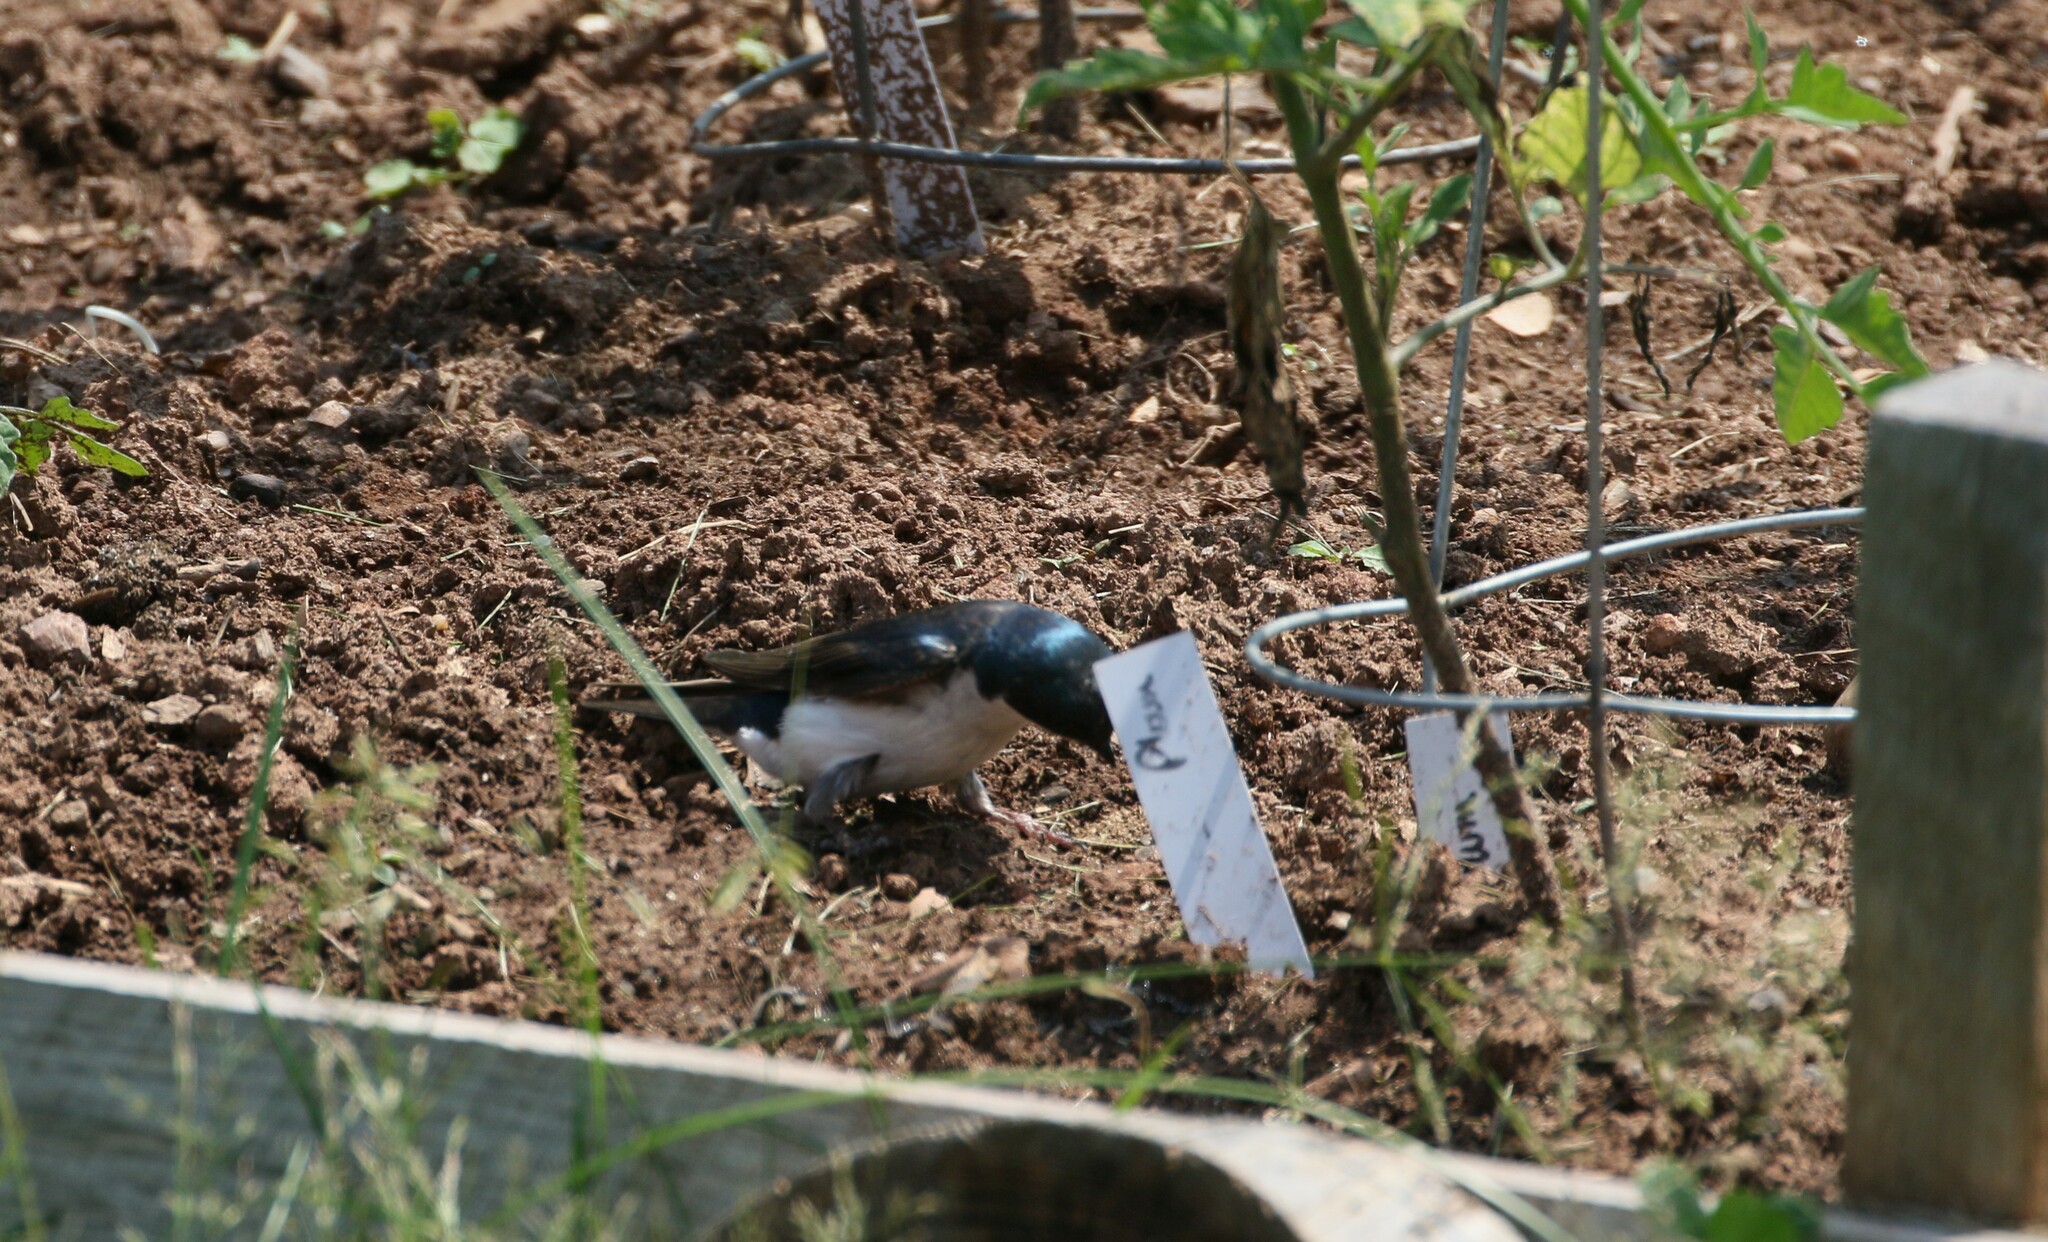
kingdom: Animalia
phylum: Chordata
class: Aves
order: Passeriformes
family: Hirundinidae
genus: Tachycineta
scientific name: Tachycineta bicolor
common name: Tree swallow
